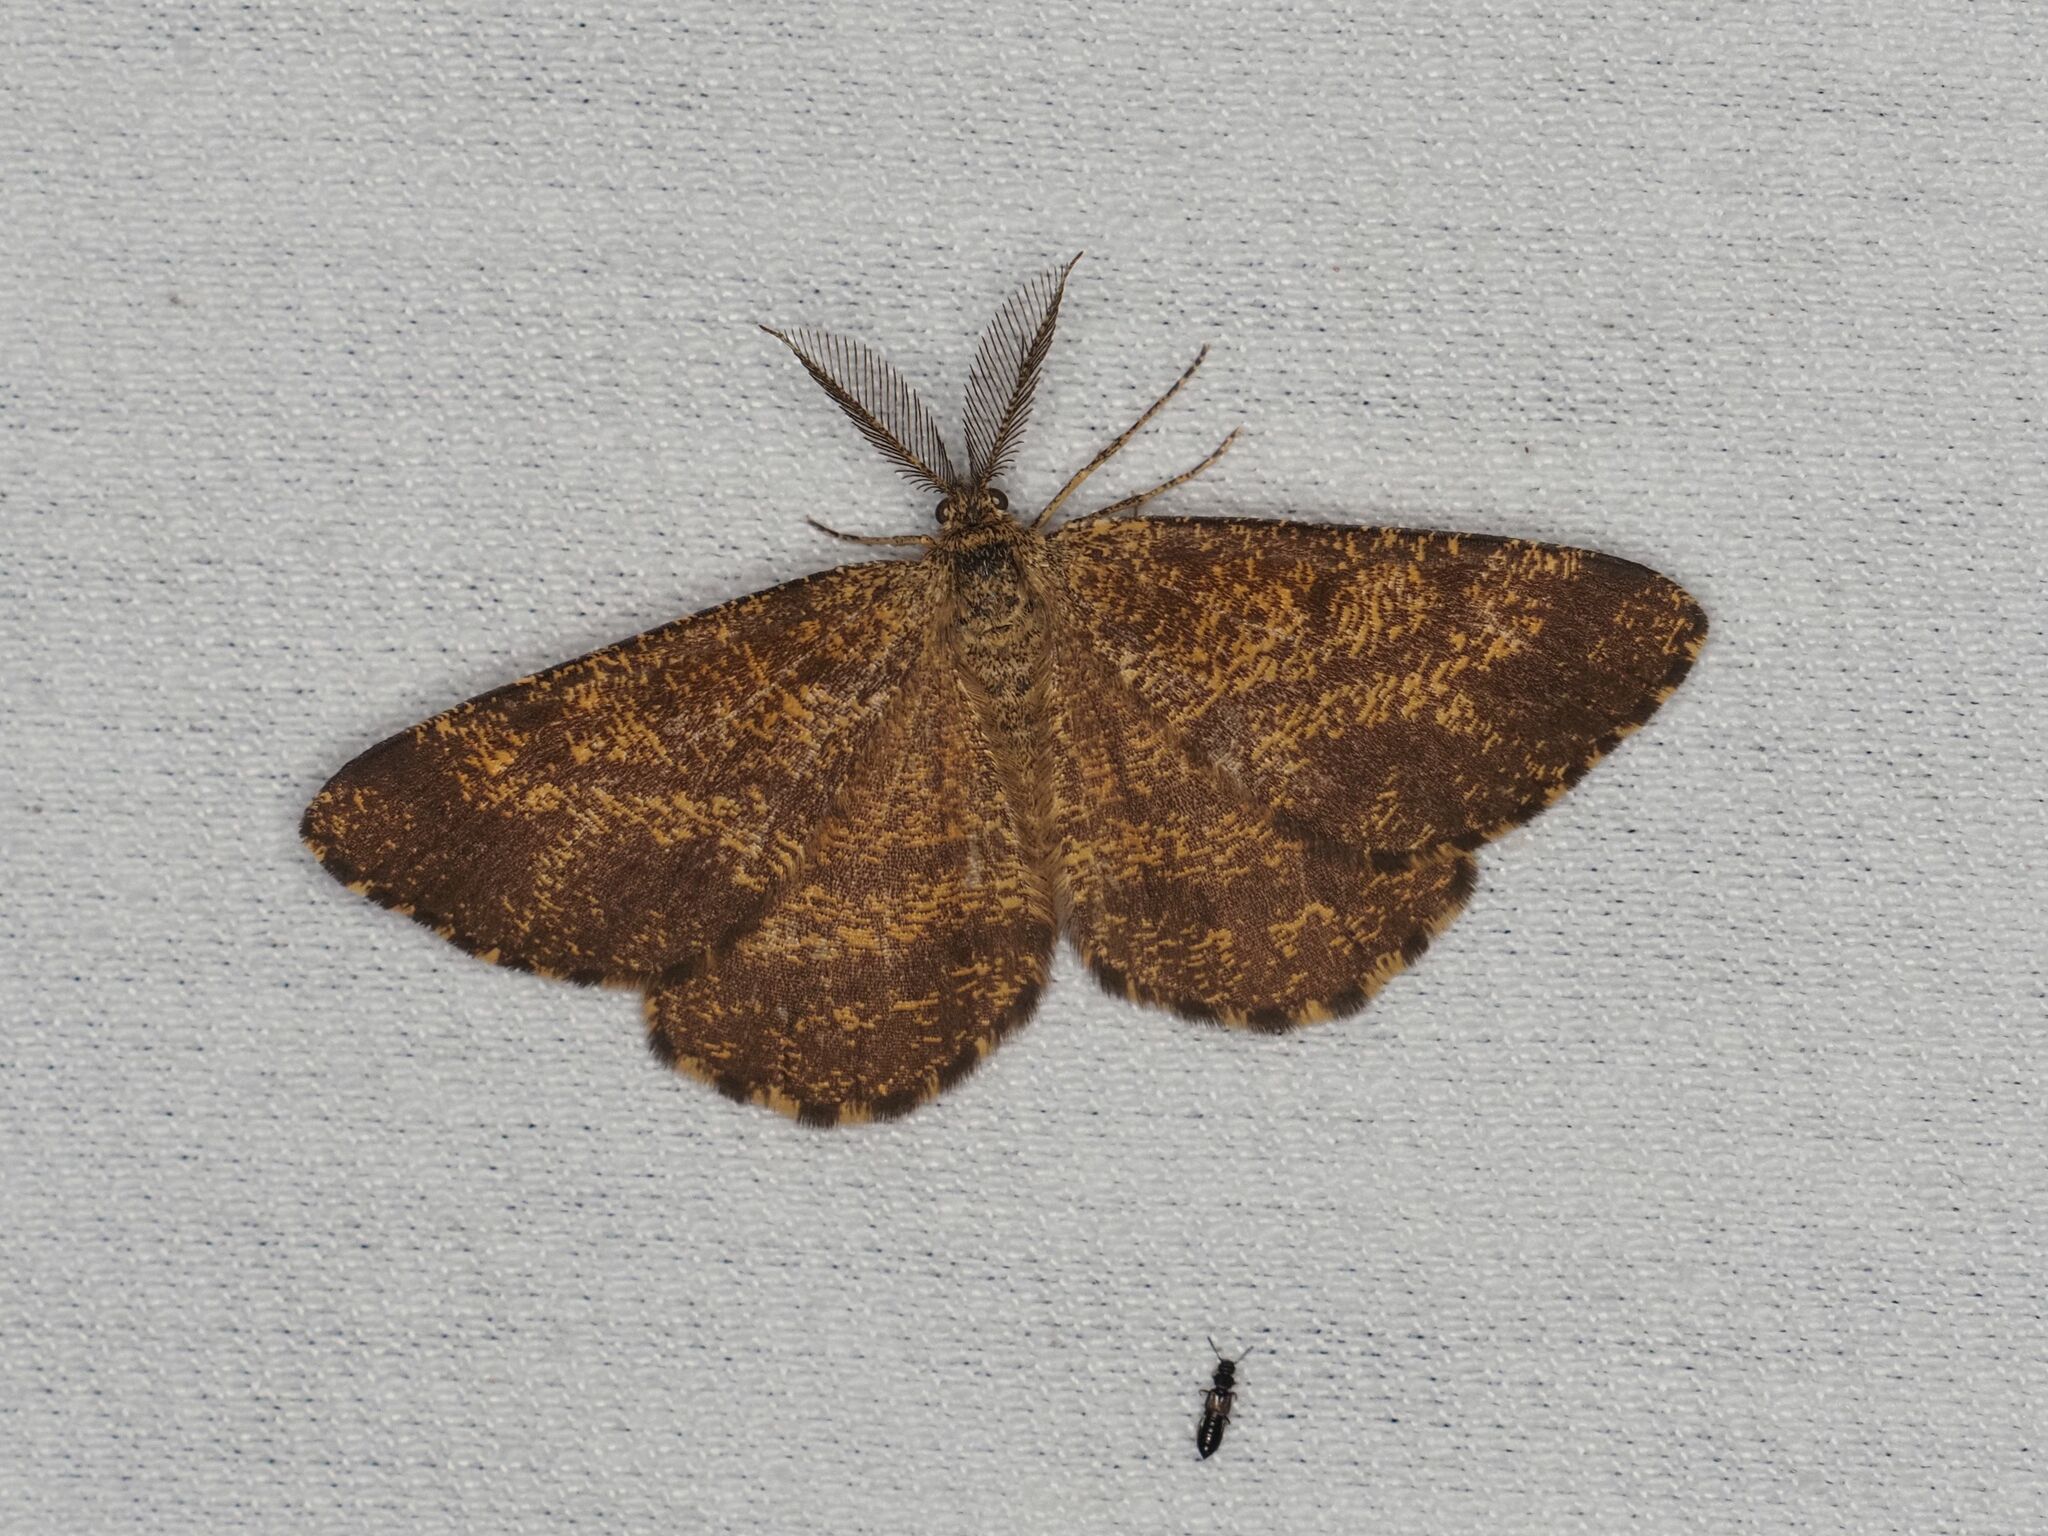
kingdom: Animalia
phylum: Arthropoda
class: Insecta
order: Lepidoptera
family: Geometridae
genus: Ematurga
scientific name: Ematurga atomaria
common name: Common heath
